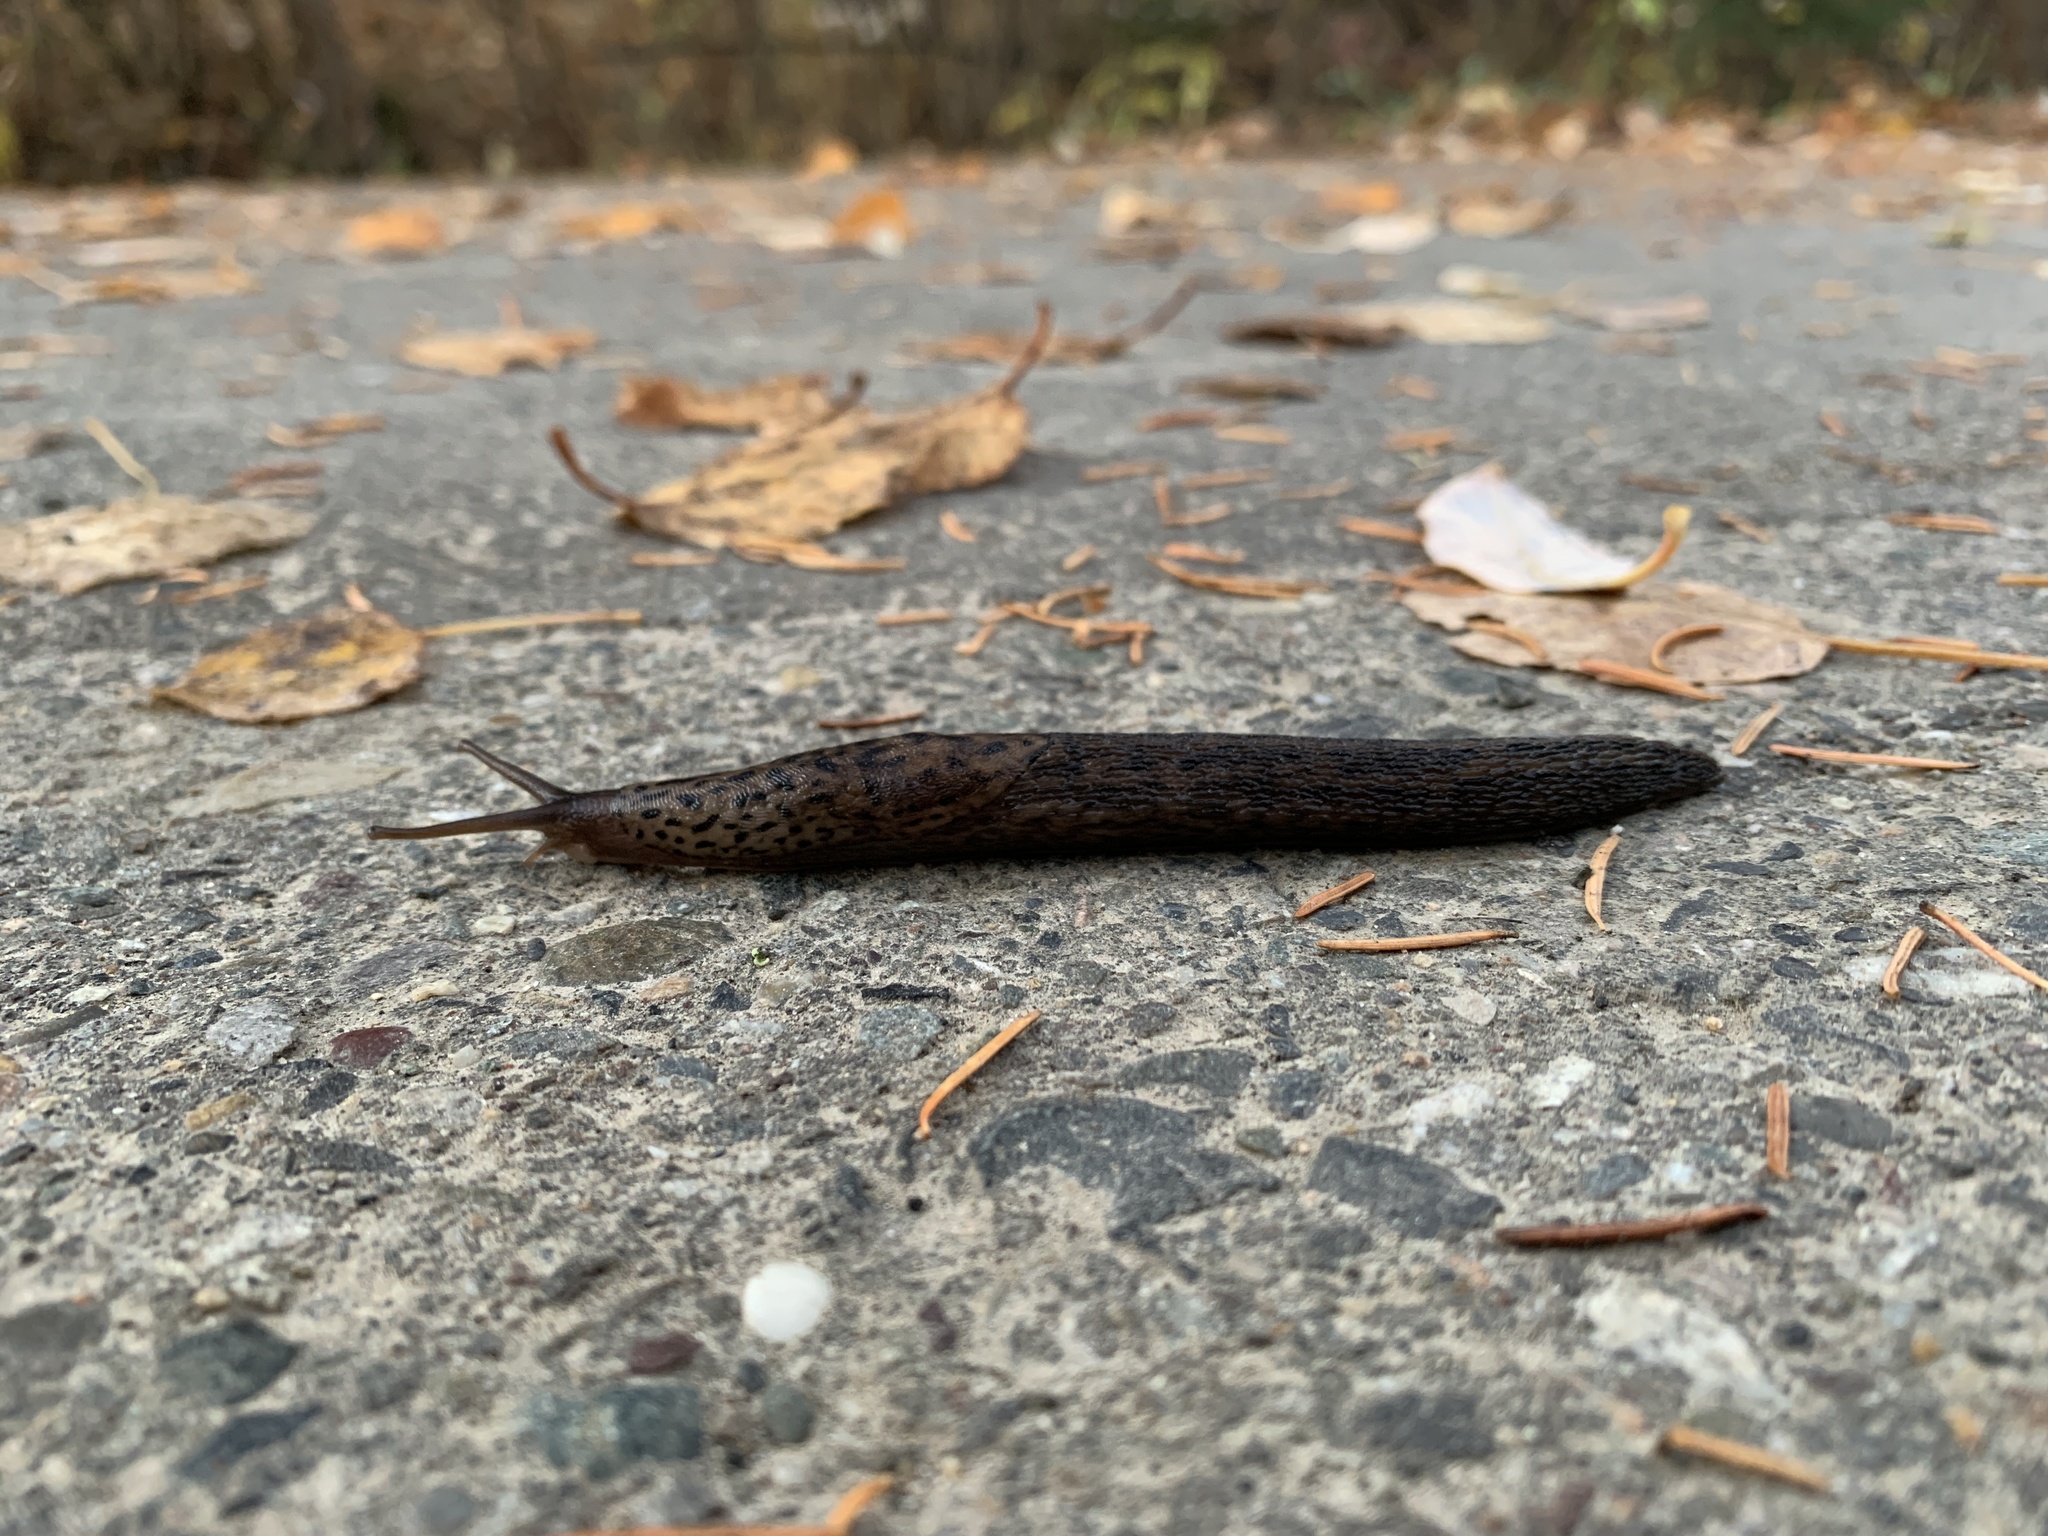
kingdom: Animalia
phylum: Mollusca
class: Gastropoda
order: Stylommatophora
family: Limacidae
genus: Limax
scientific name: Limax maximus
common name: Great grey slug
